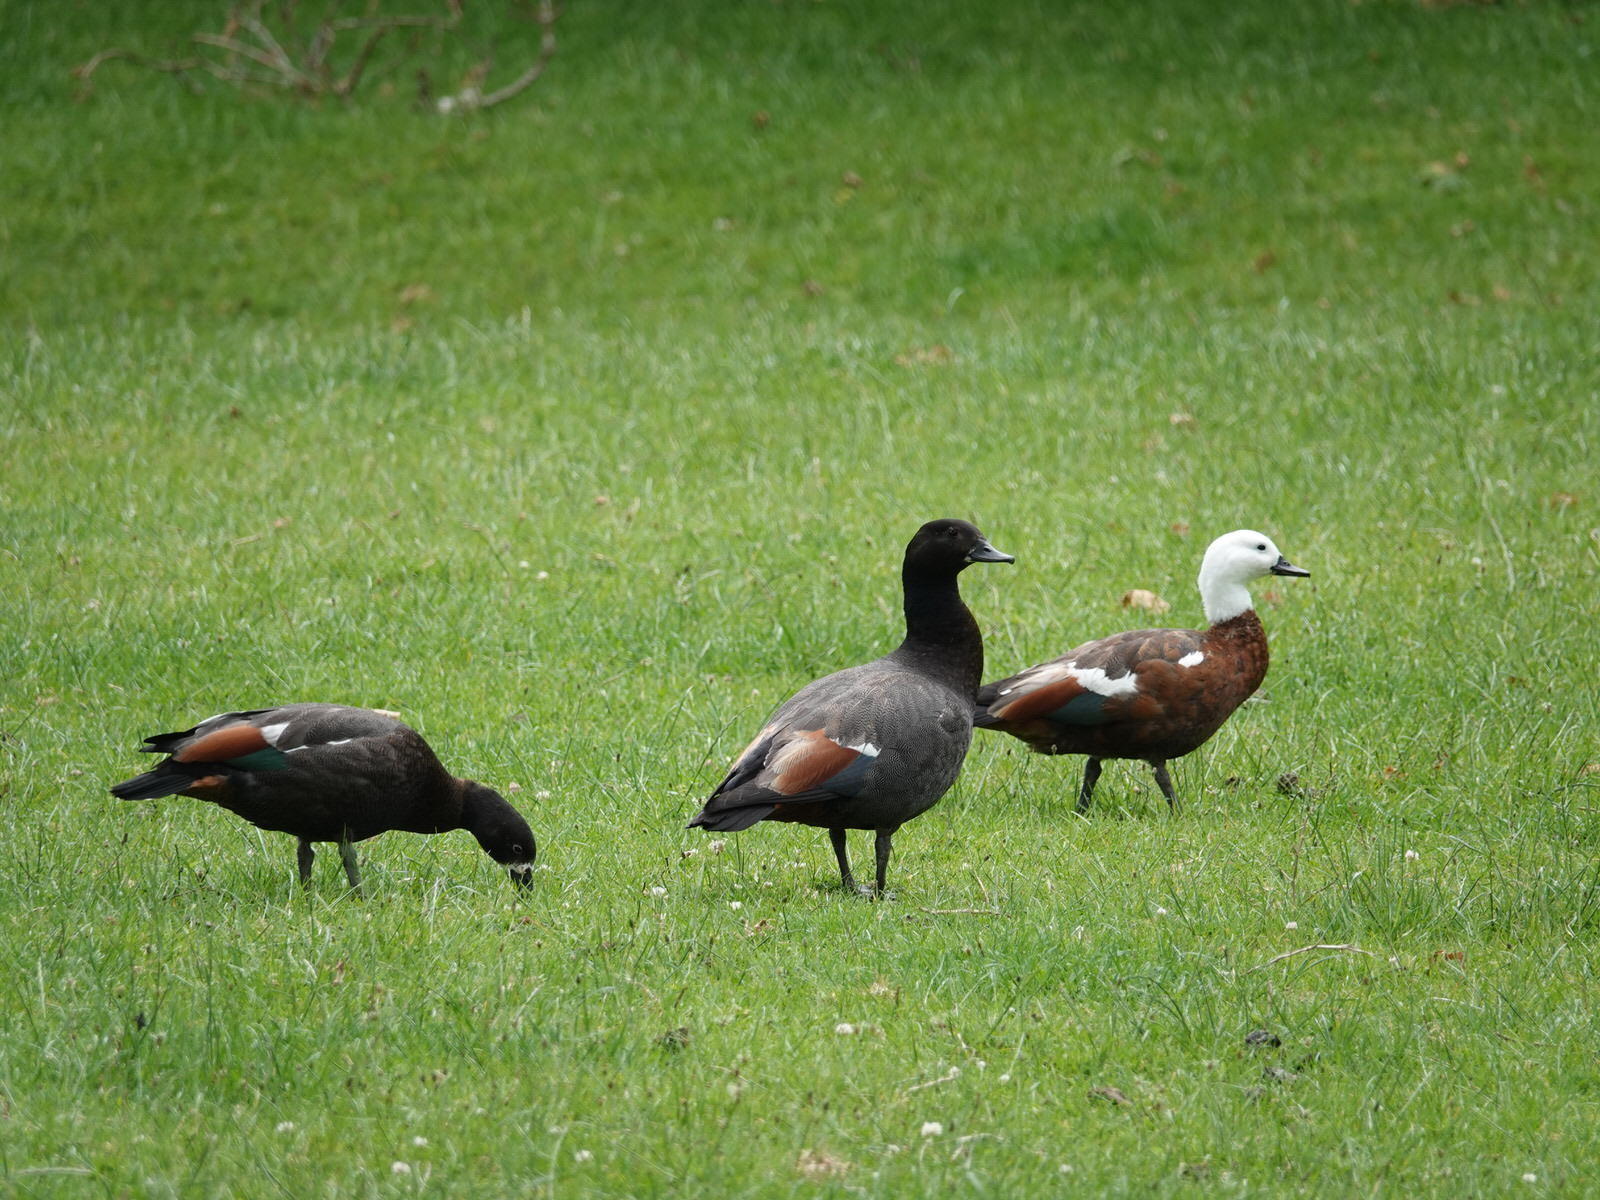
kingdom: Animalia
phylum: Chordata
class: Aves
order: Anseriformes
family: Anatidae
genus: Tadorna
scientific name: Tadorna variegata
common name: Paradise shelduck
